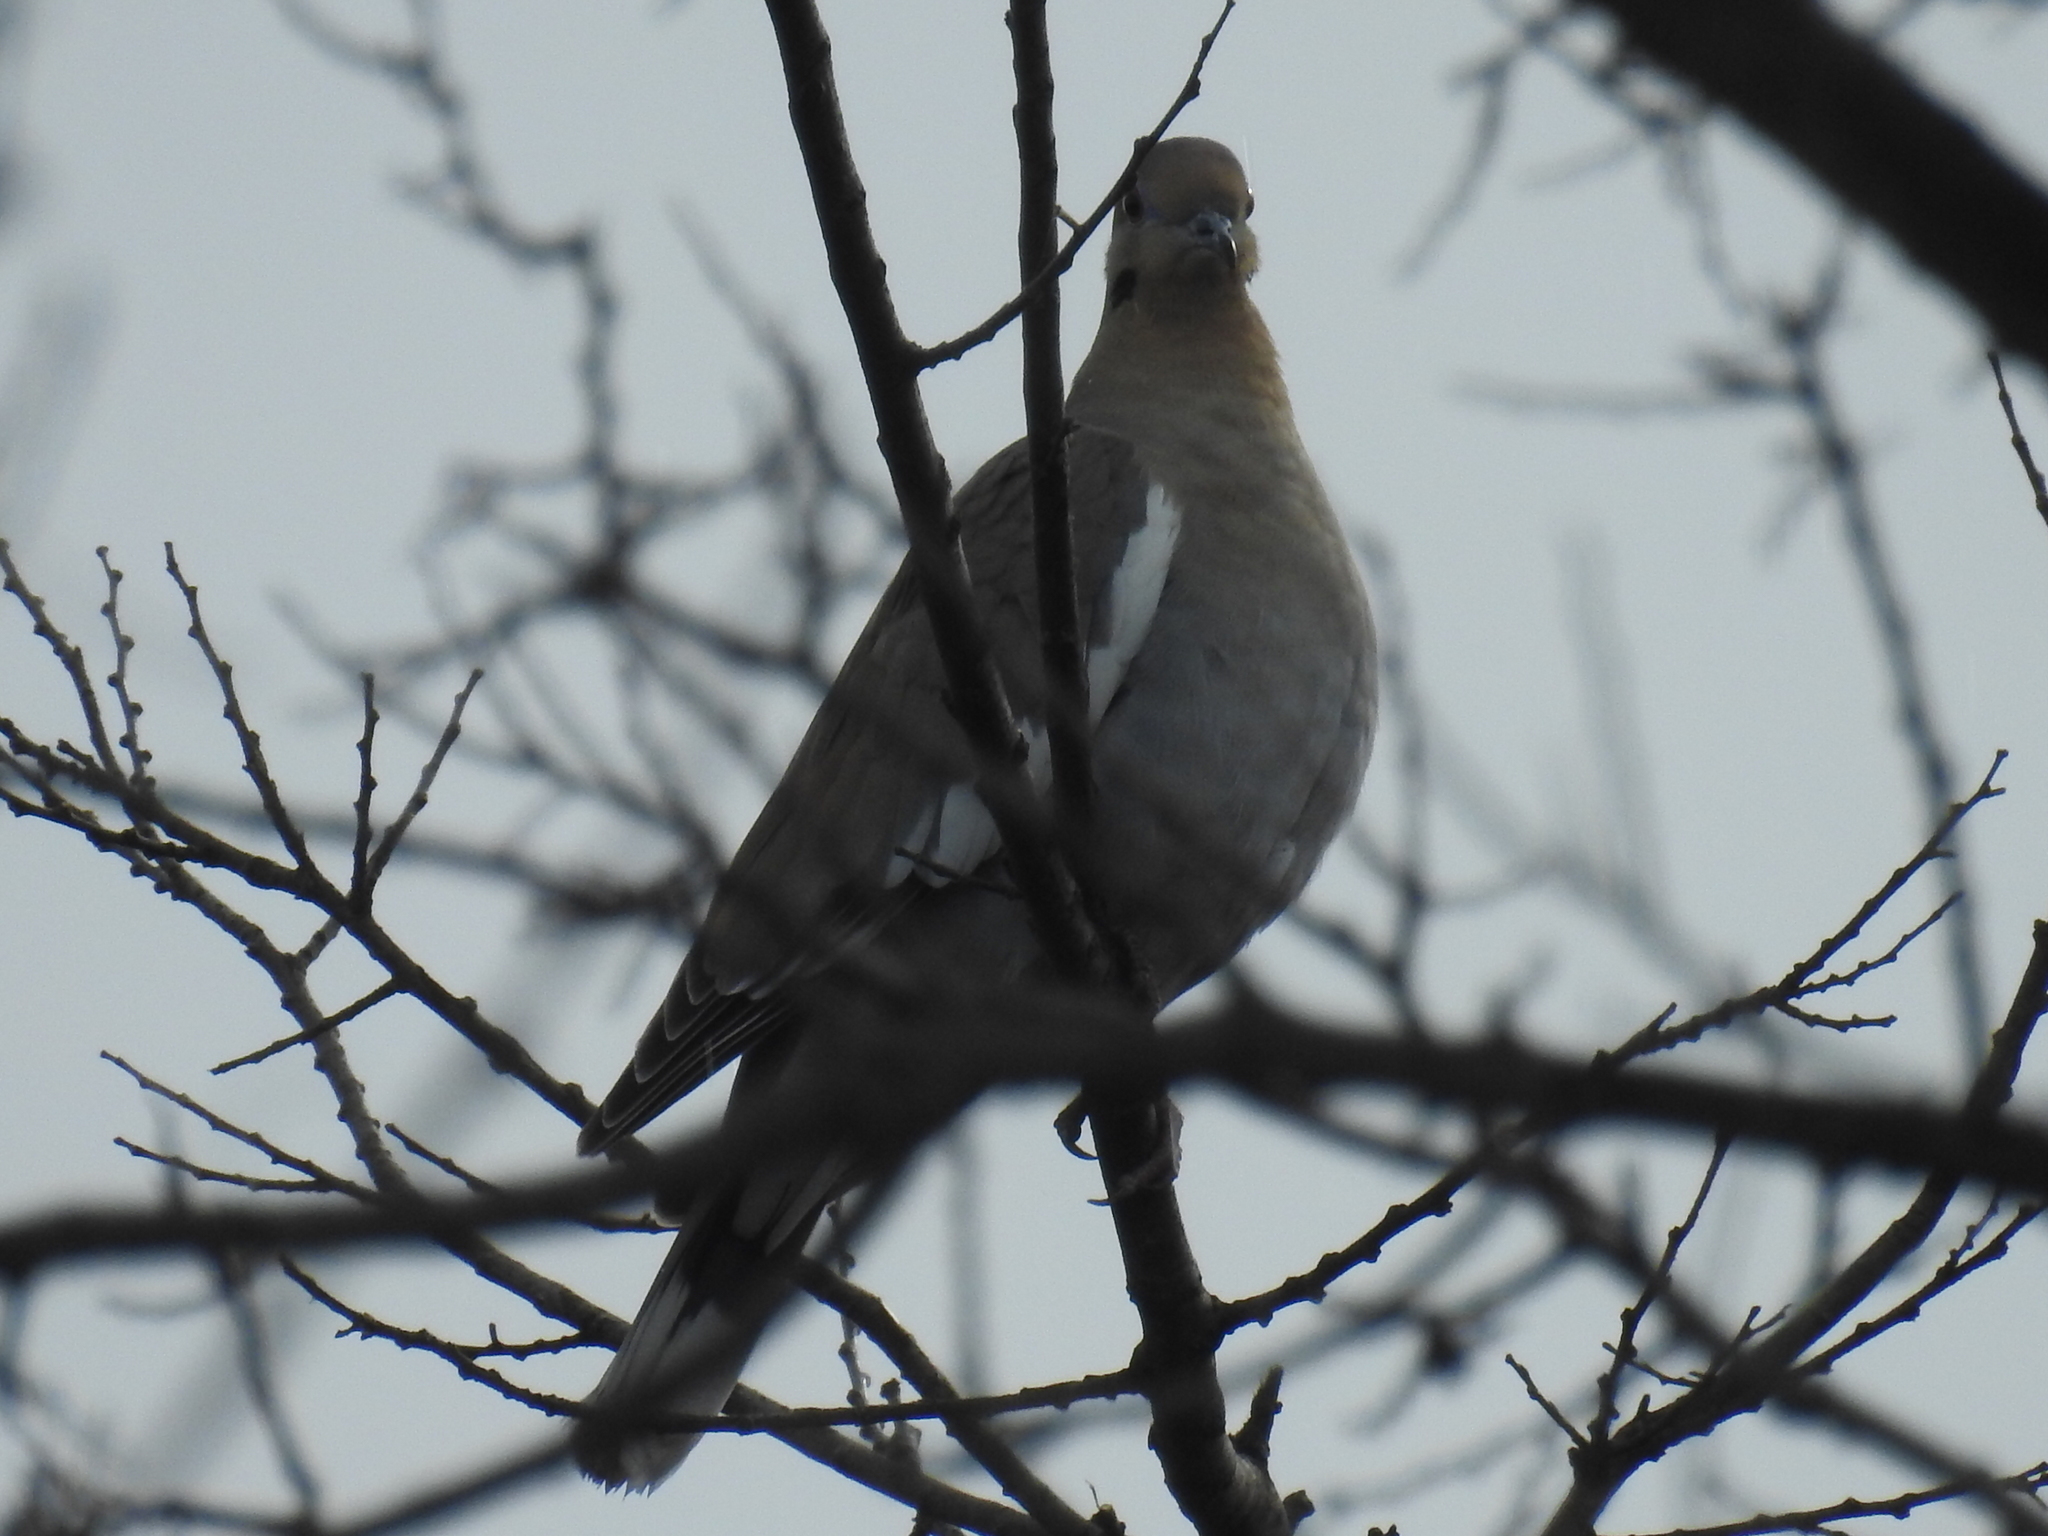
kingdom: Animalia
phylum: Chordata
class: Aves
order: Columbiformes
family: Columbidae
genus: Zenaida
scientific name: Zenaida asiatica
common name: White-winged dove
